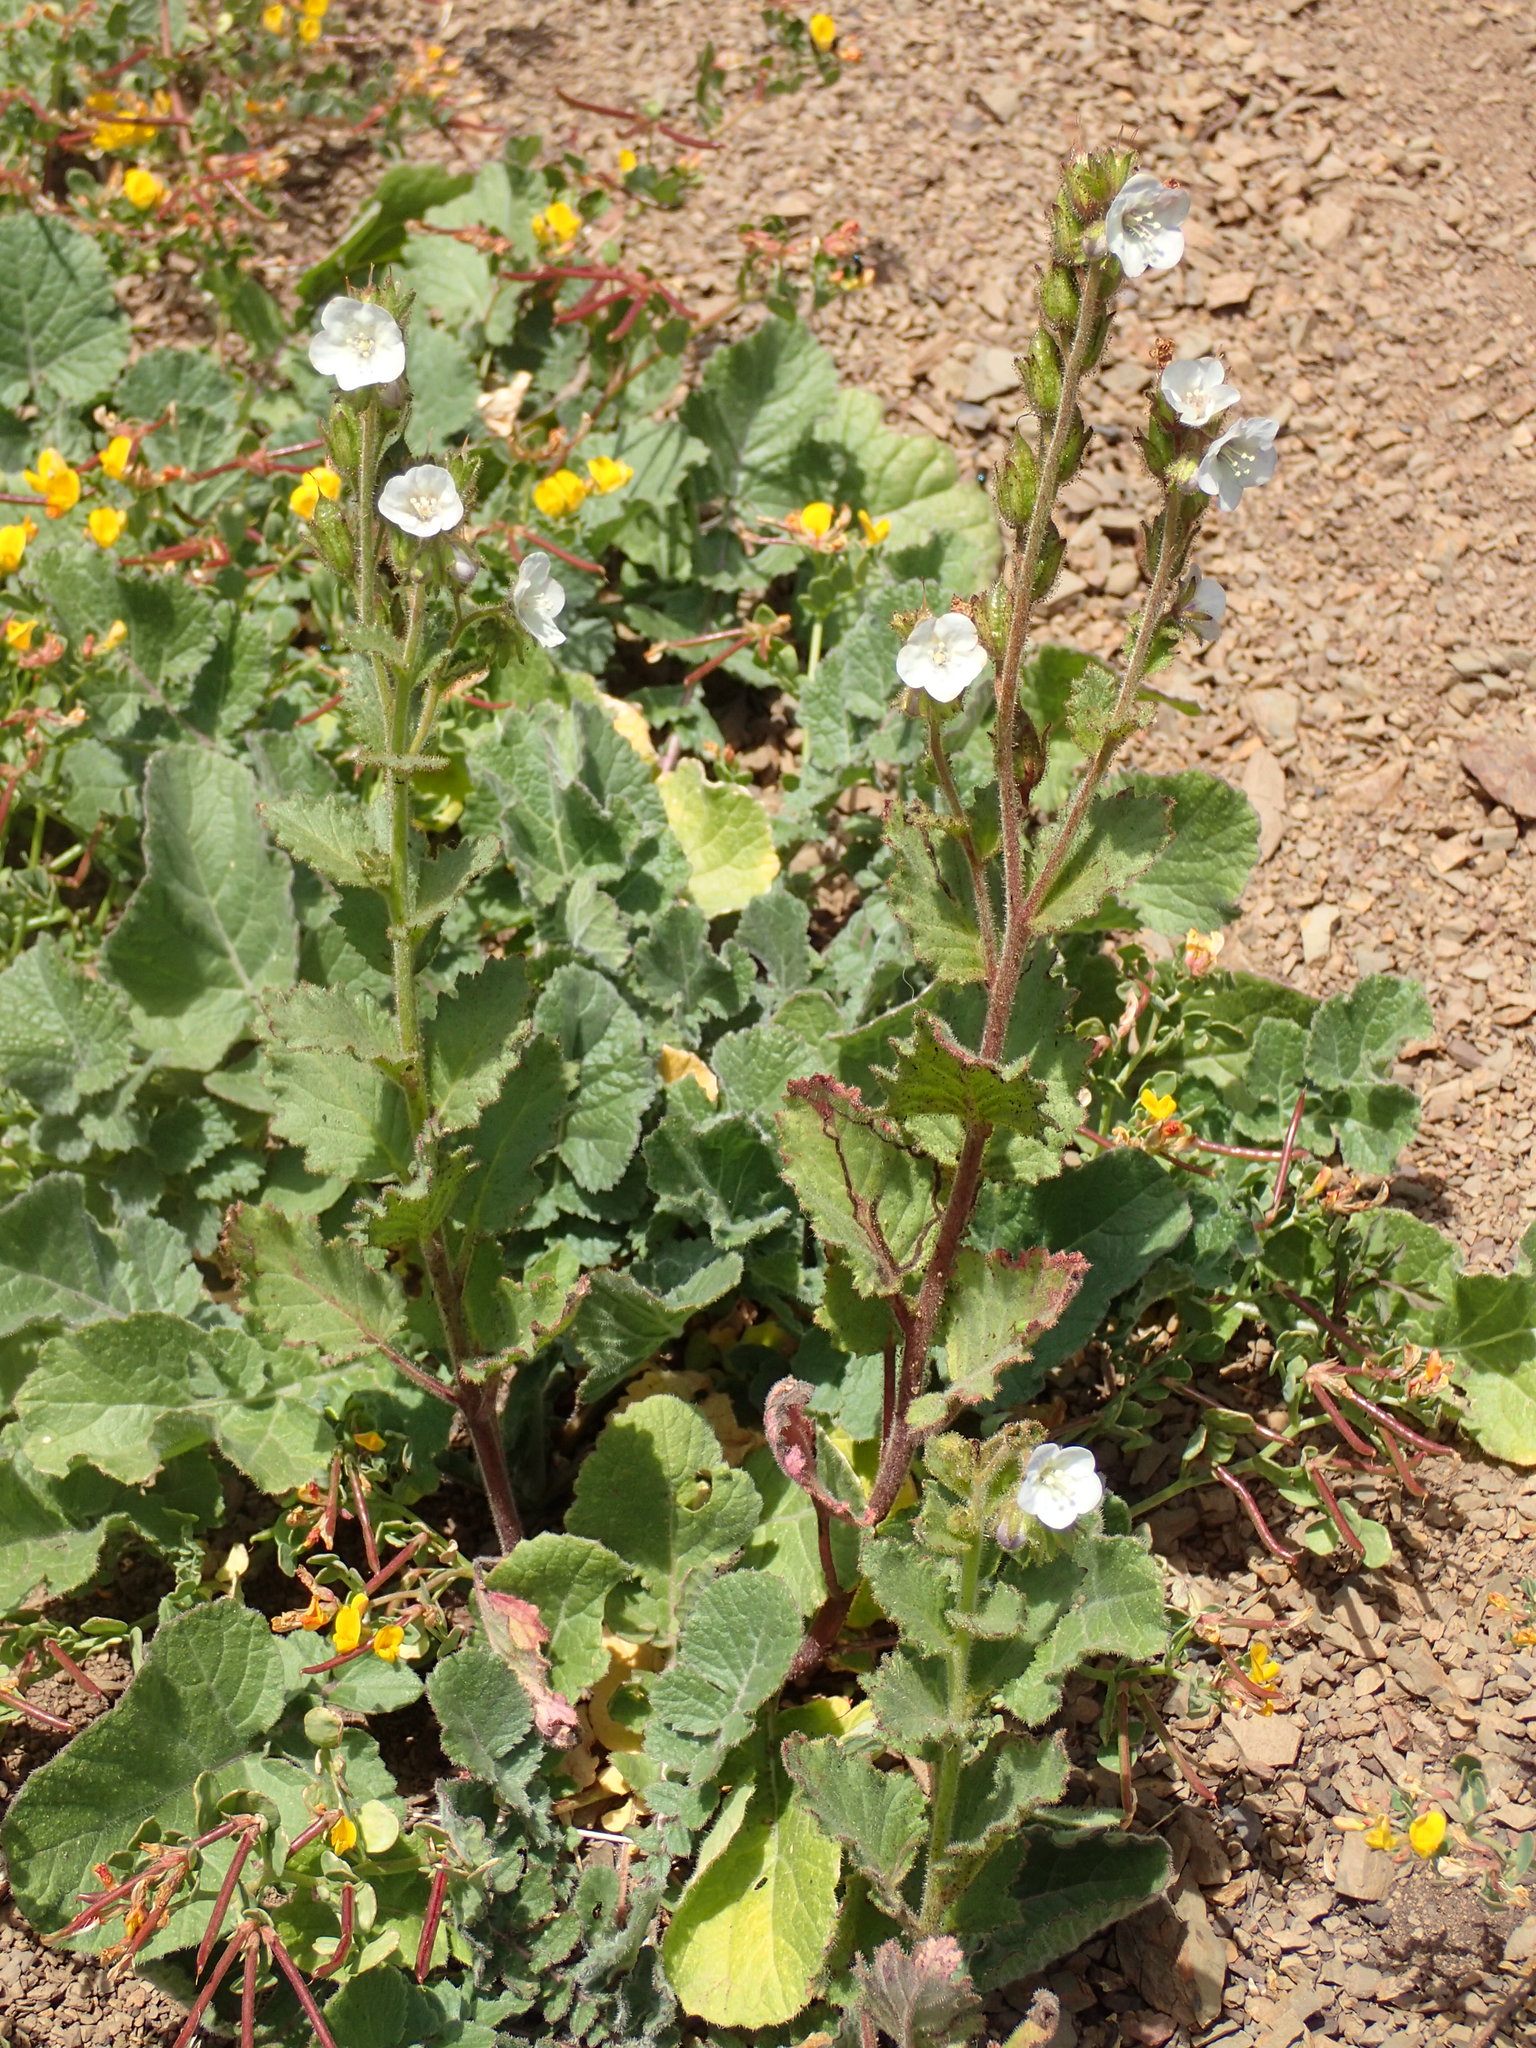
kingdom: Plantae
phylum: Tracheophyta
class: Magnoliopsida
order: Boraginales
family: Hydrophyllaceae
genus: Phacelia
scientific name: Phacelia viscida
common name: Sticky phacelia
